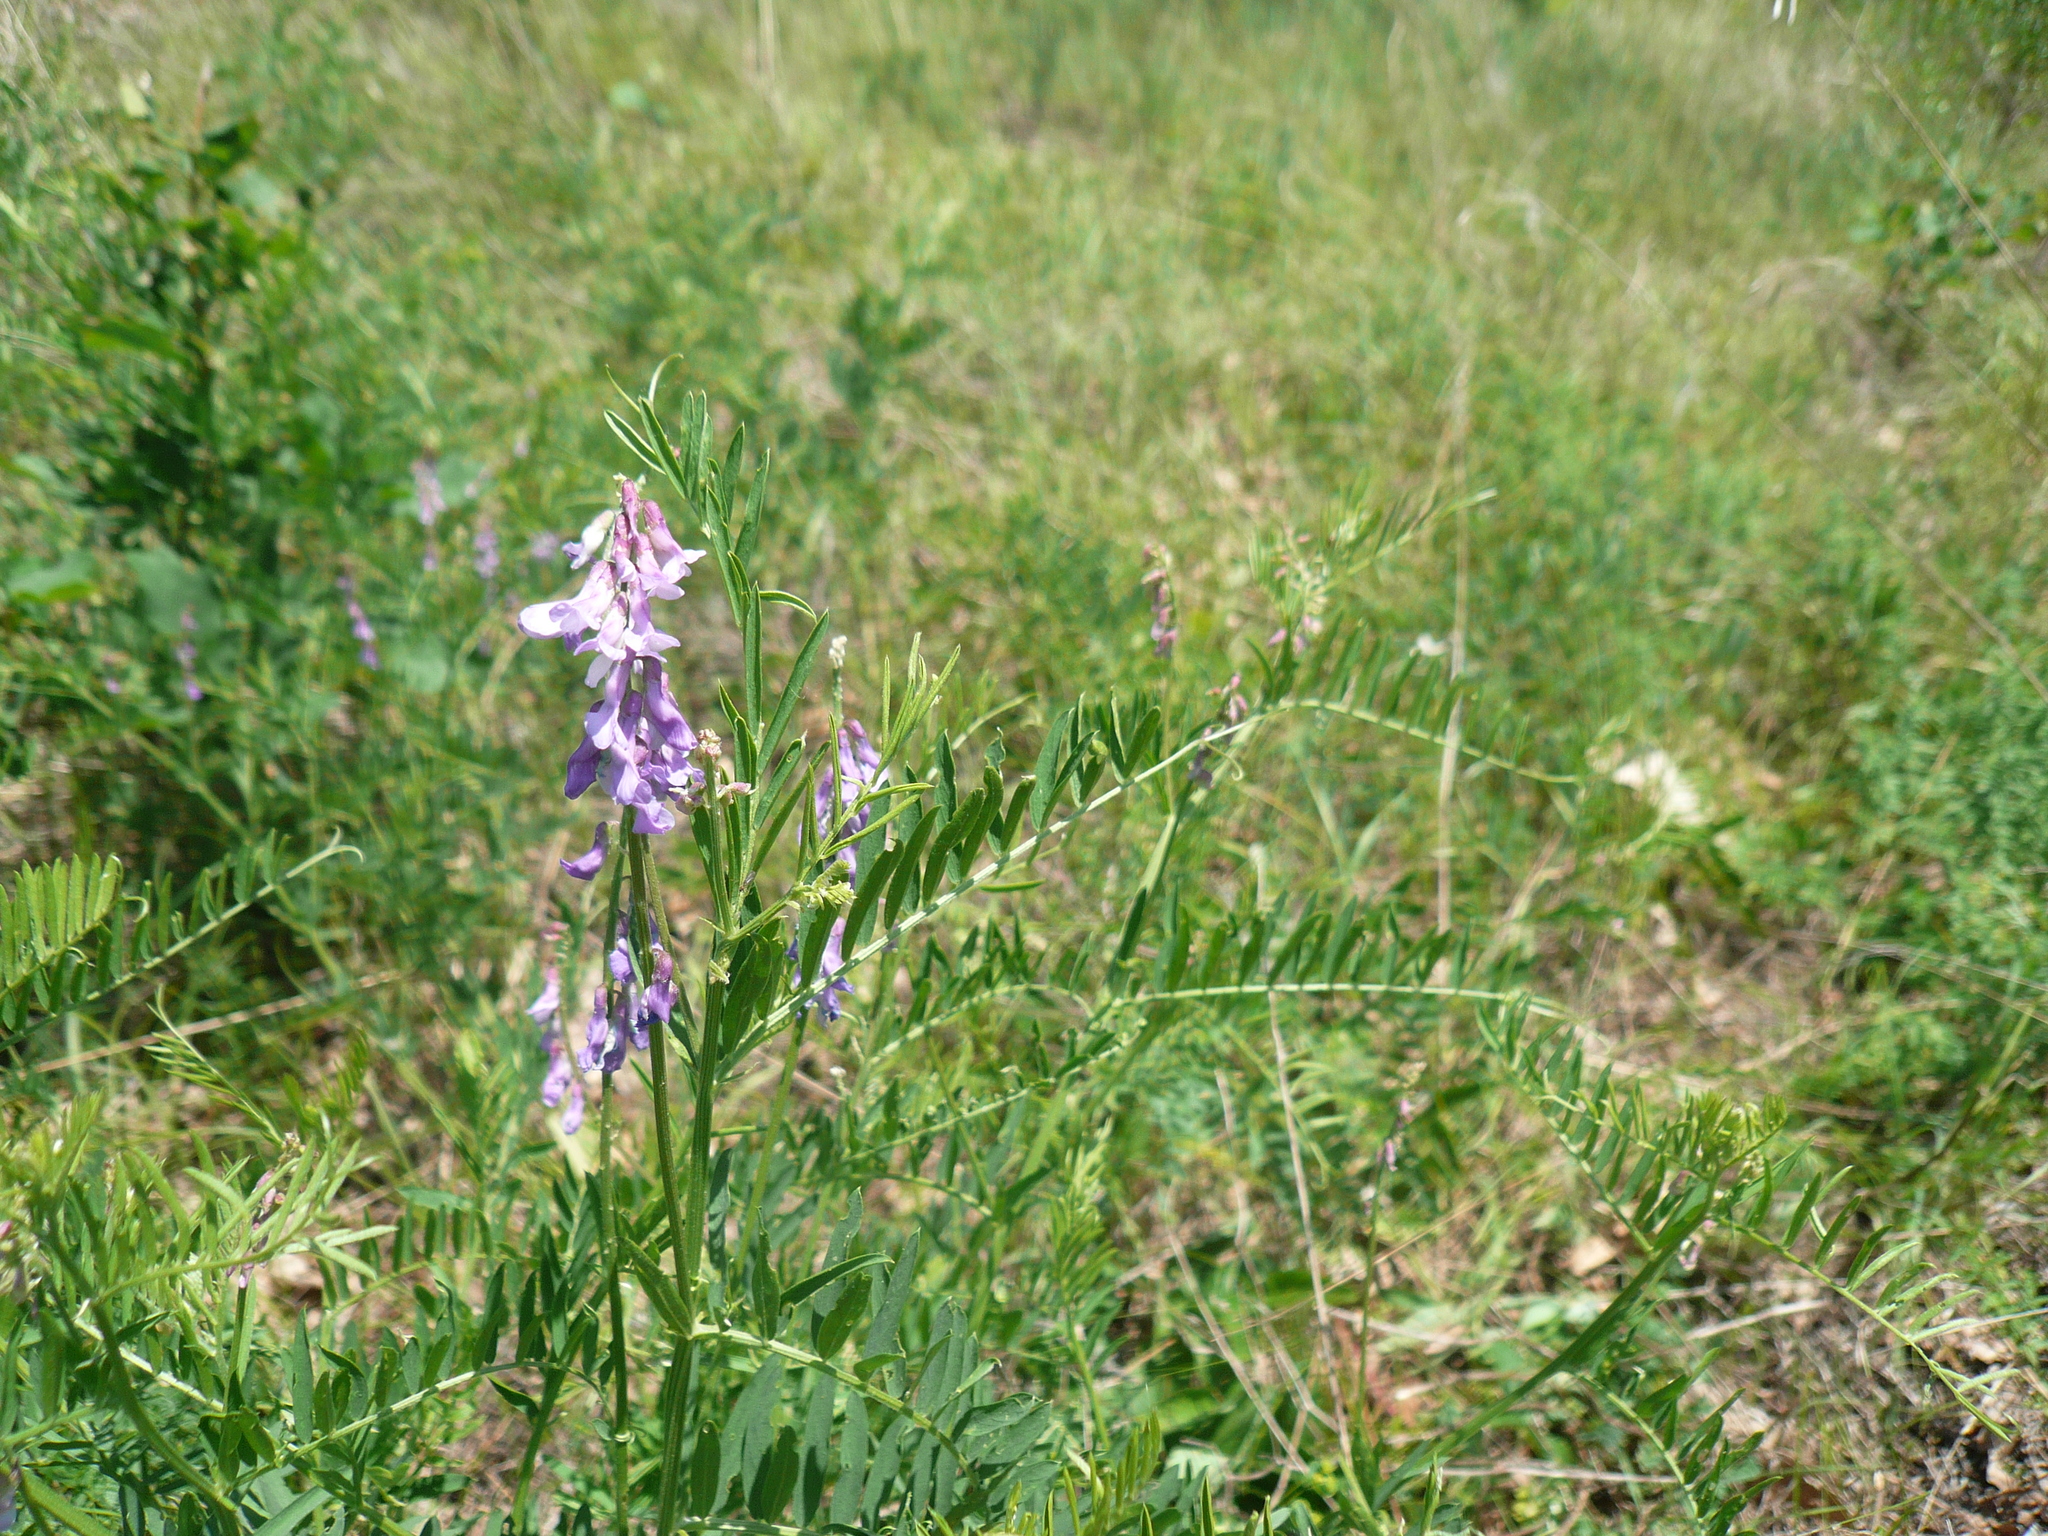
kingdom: Plantae
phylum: Tracheophyta
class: Magnoliopsida
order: Fabales
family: Fabaceae
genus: Vicia
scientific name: Vicia tenuifolia
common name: Fine-leaved vetch
